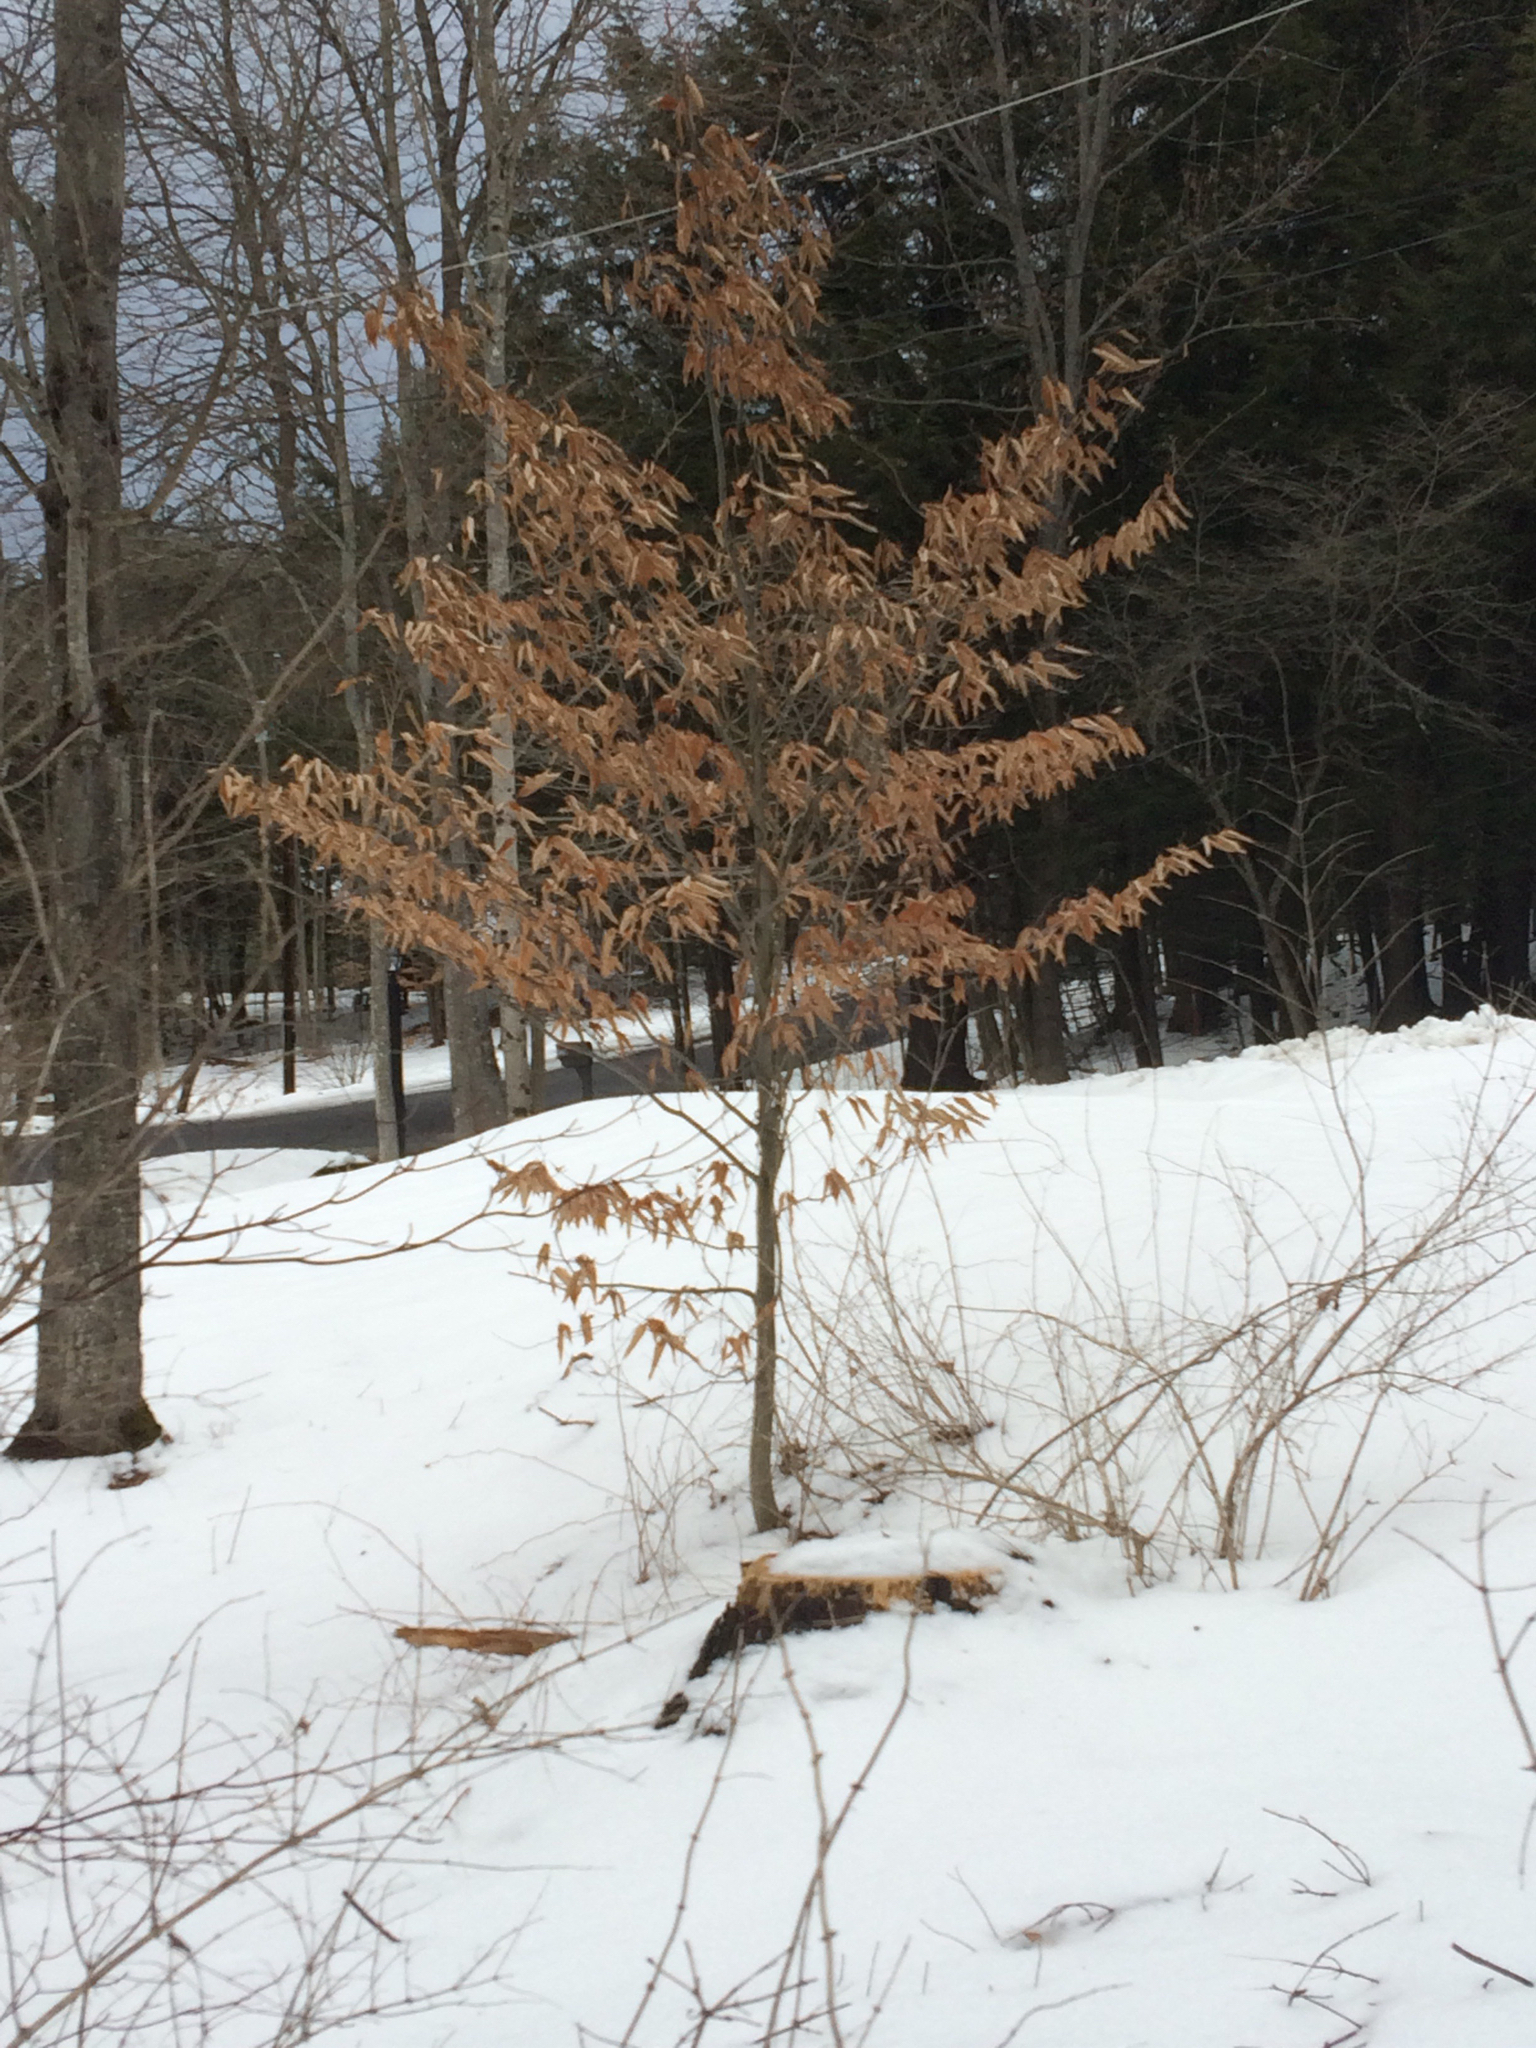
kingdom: Plantae
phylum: Tracheophyta
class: Magnoliopsida
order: Fagales
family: Fagaceae
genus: Fagus
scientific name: Fagus grandifolia
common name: American beech
